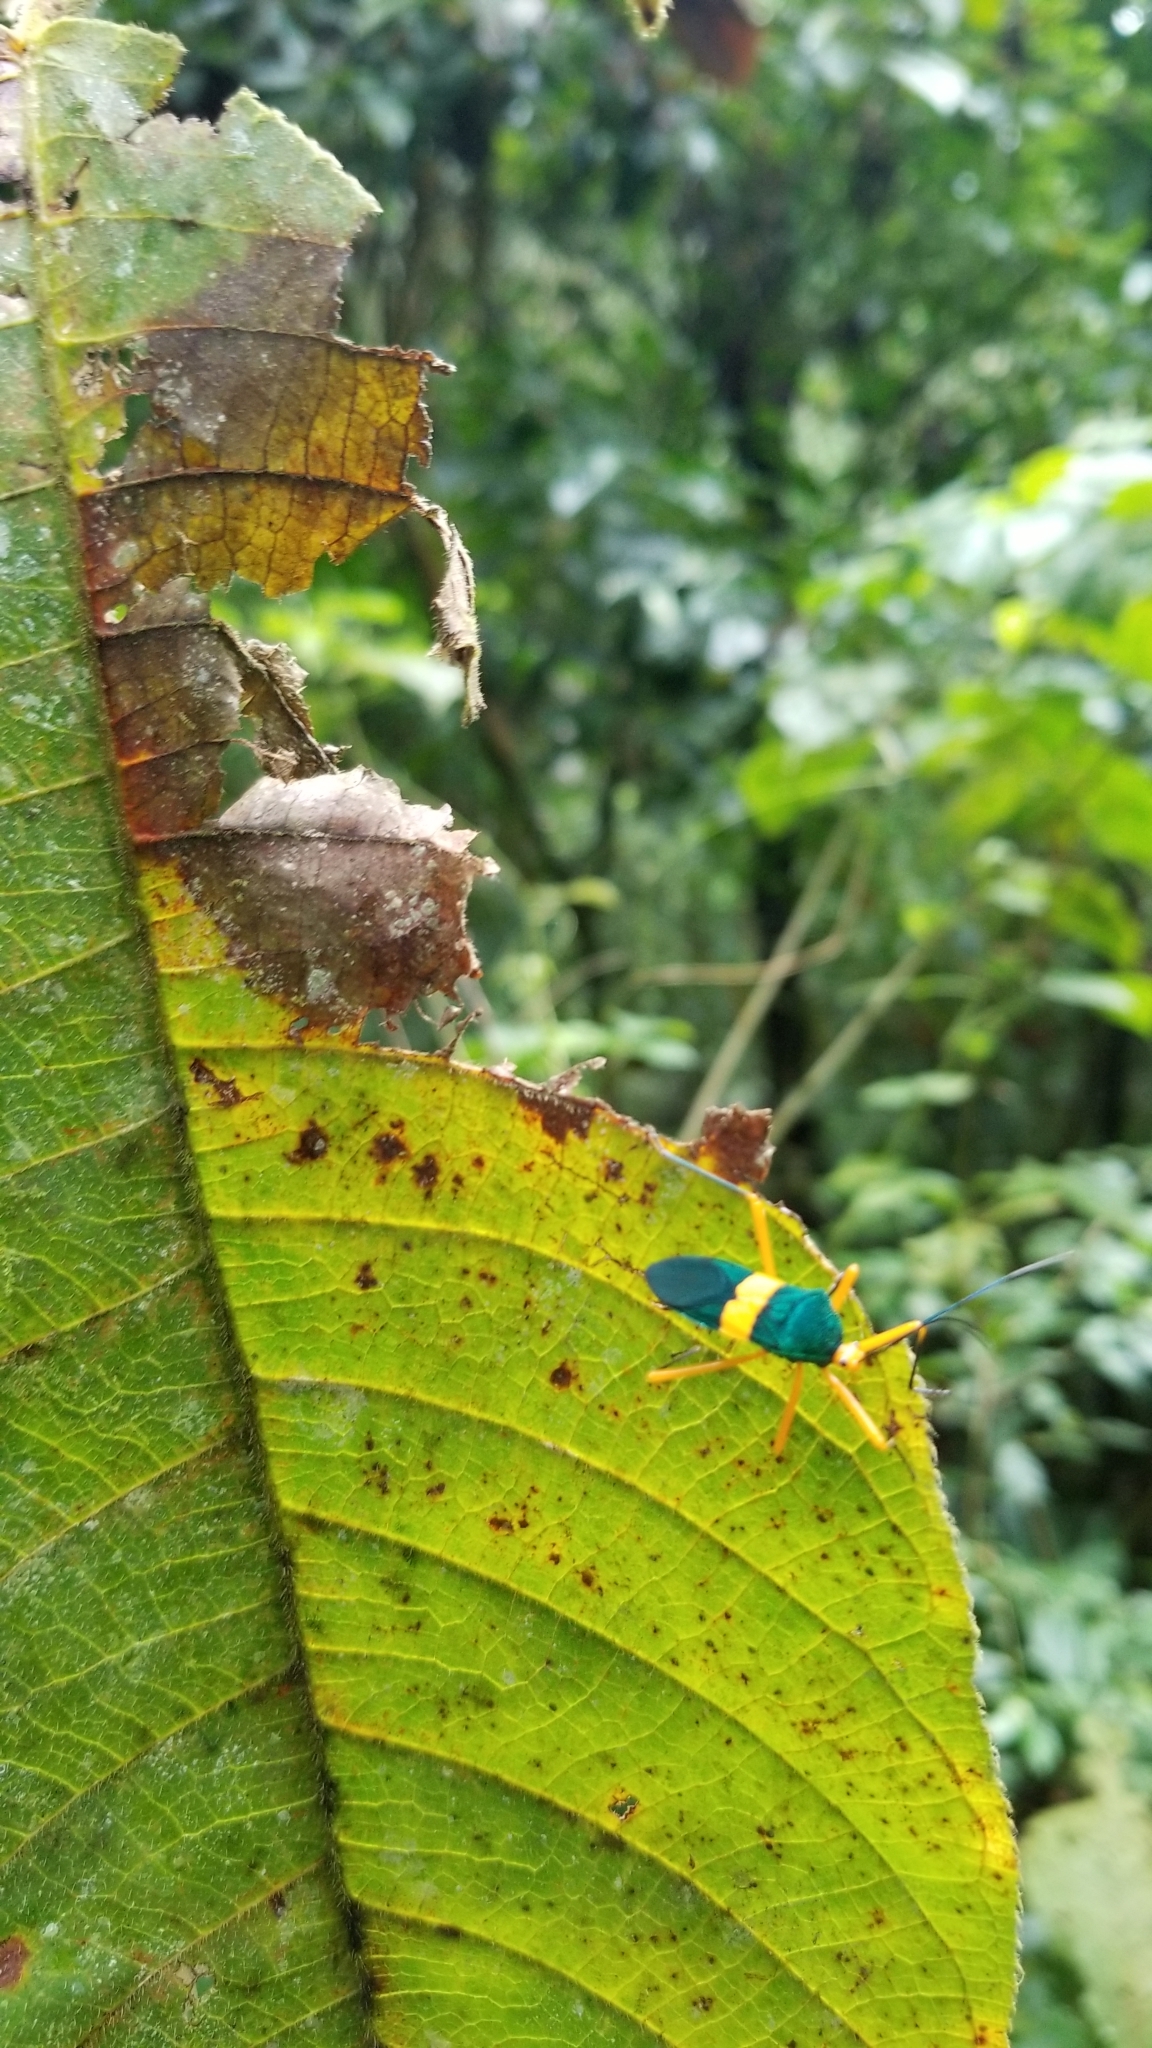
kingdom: Animalia
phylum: Arthropoda
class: Insecta
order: Hemiptera
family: Coreidae
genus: Paryphes
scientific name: Paryphes flavocinctus
